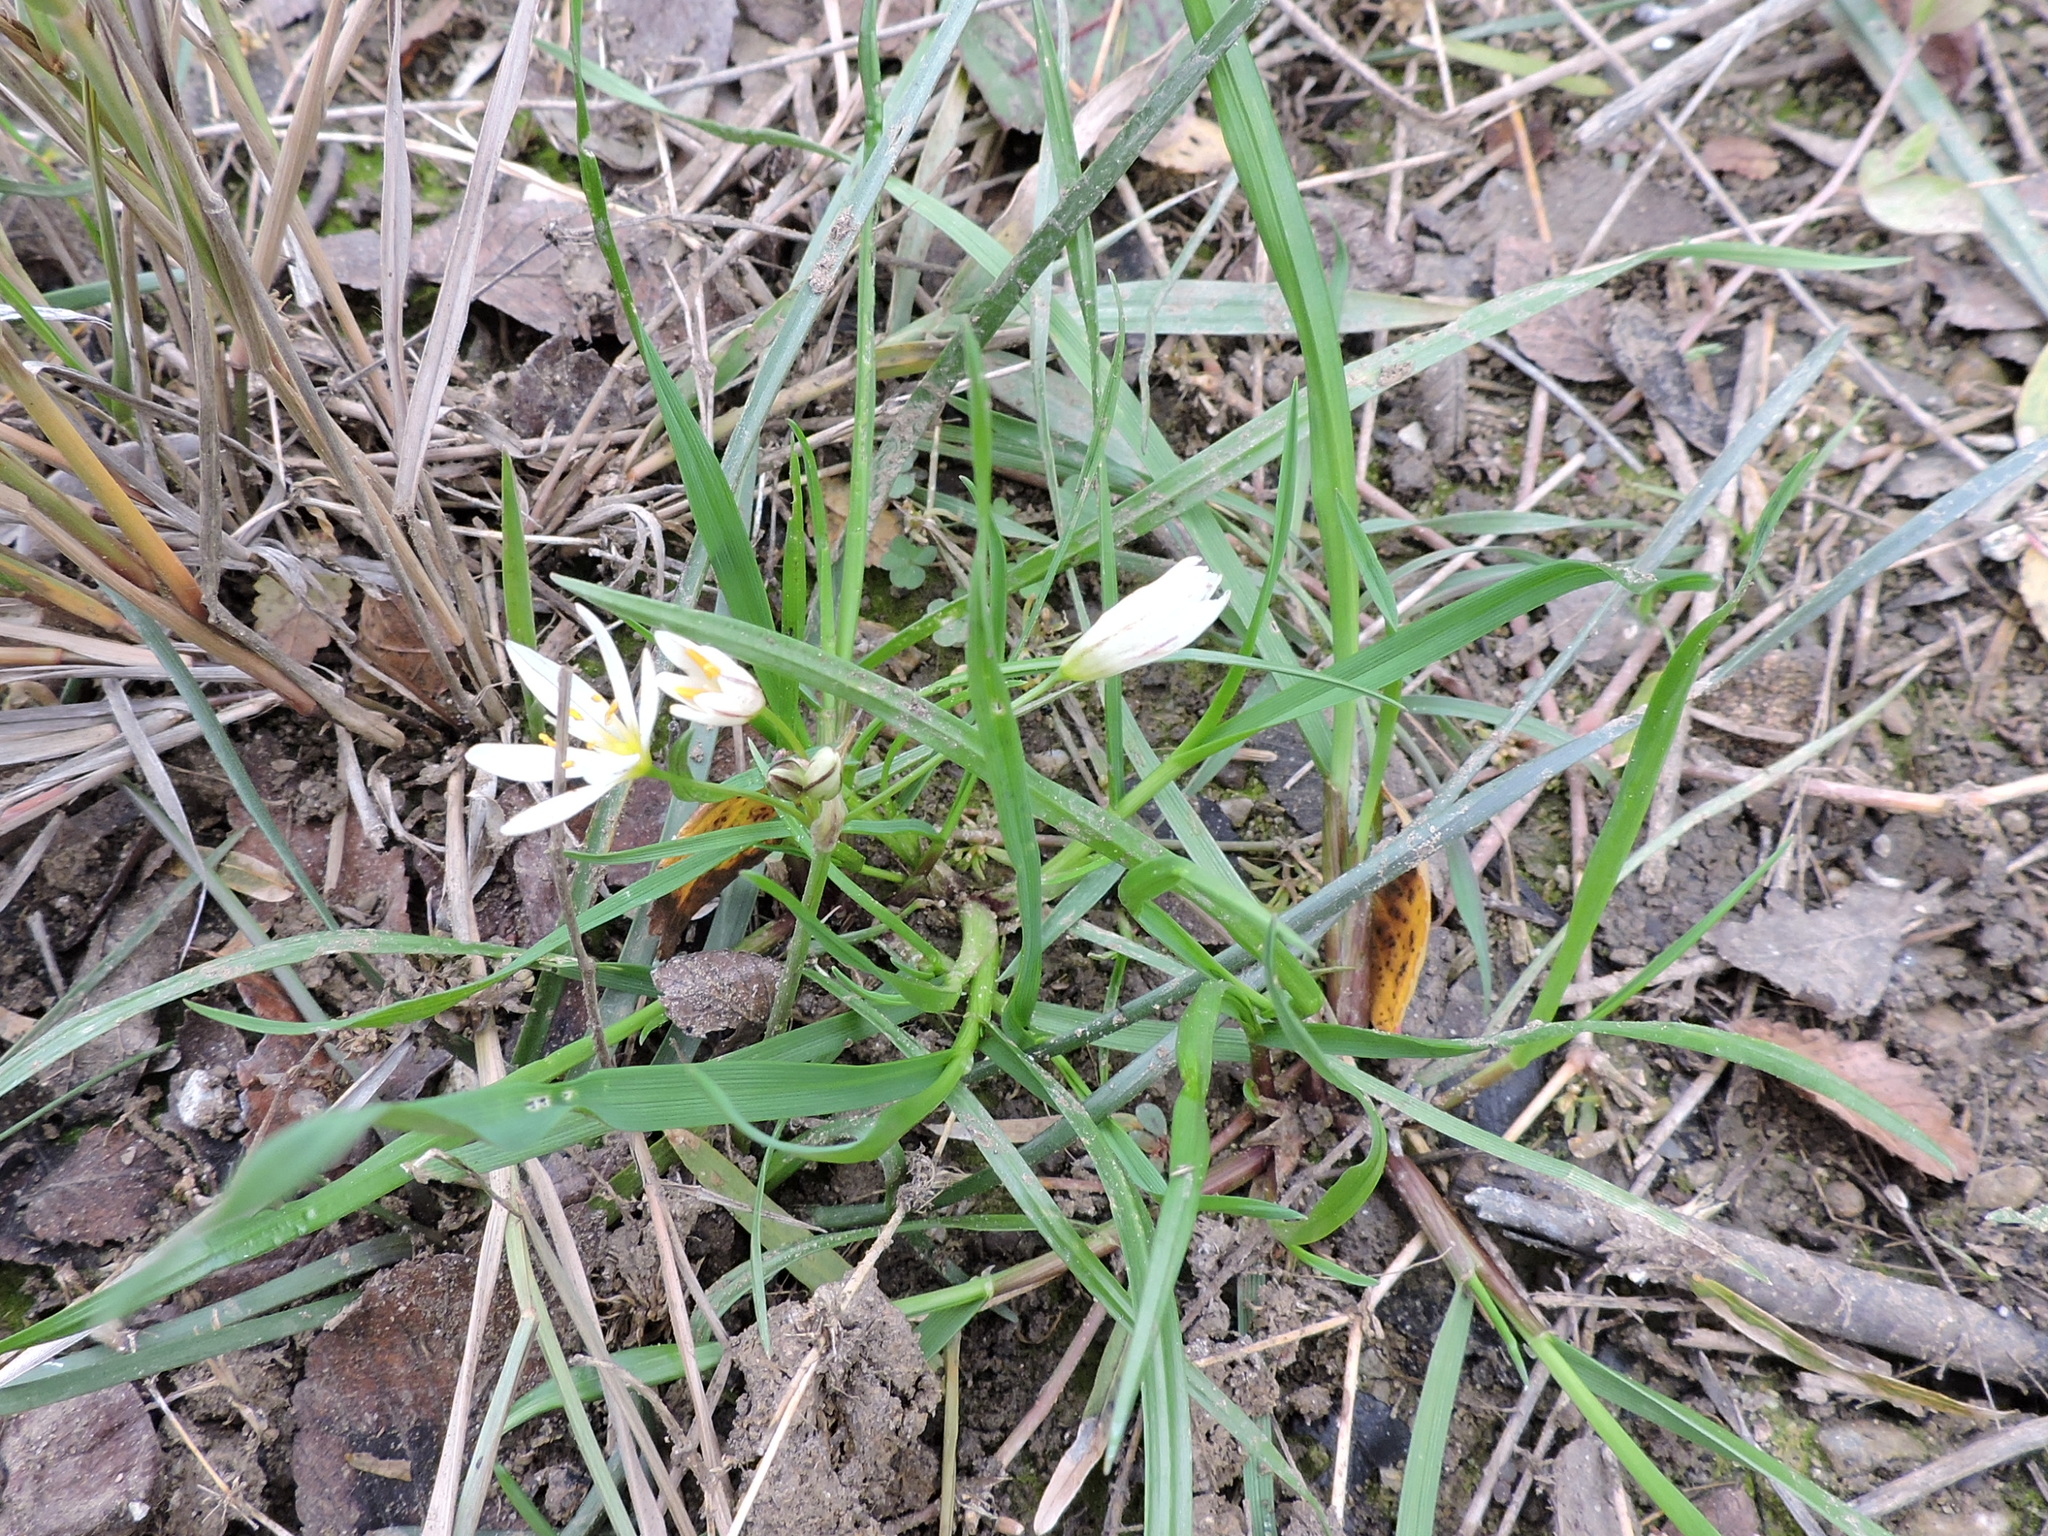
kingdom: Plantae
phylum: Tracheophyta
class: Liliopsida
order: Asparagales
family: Amaryllidaceae
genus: Nothoscordum
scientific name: Nothoscordum bivalve
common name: Crow-poison
